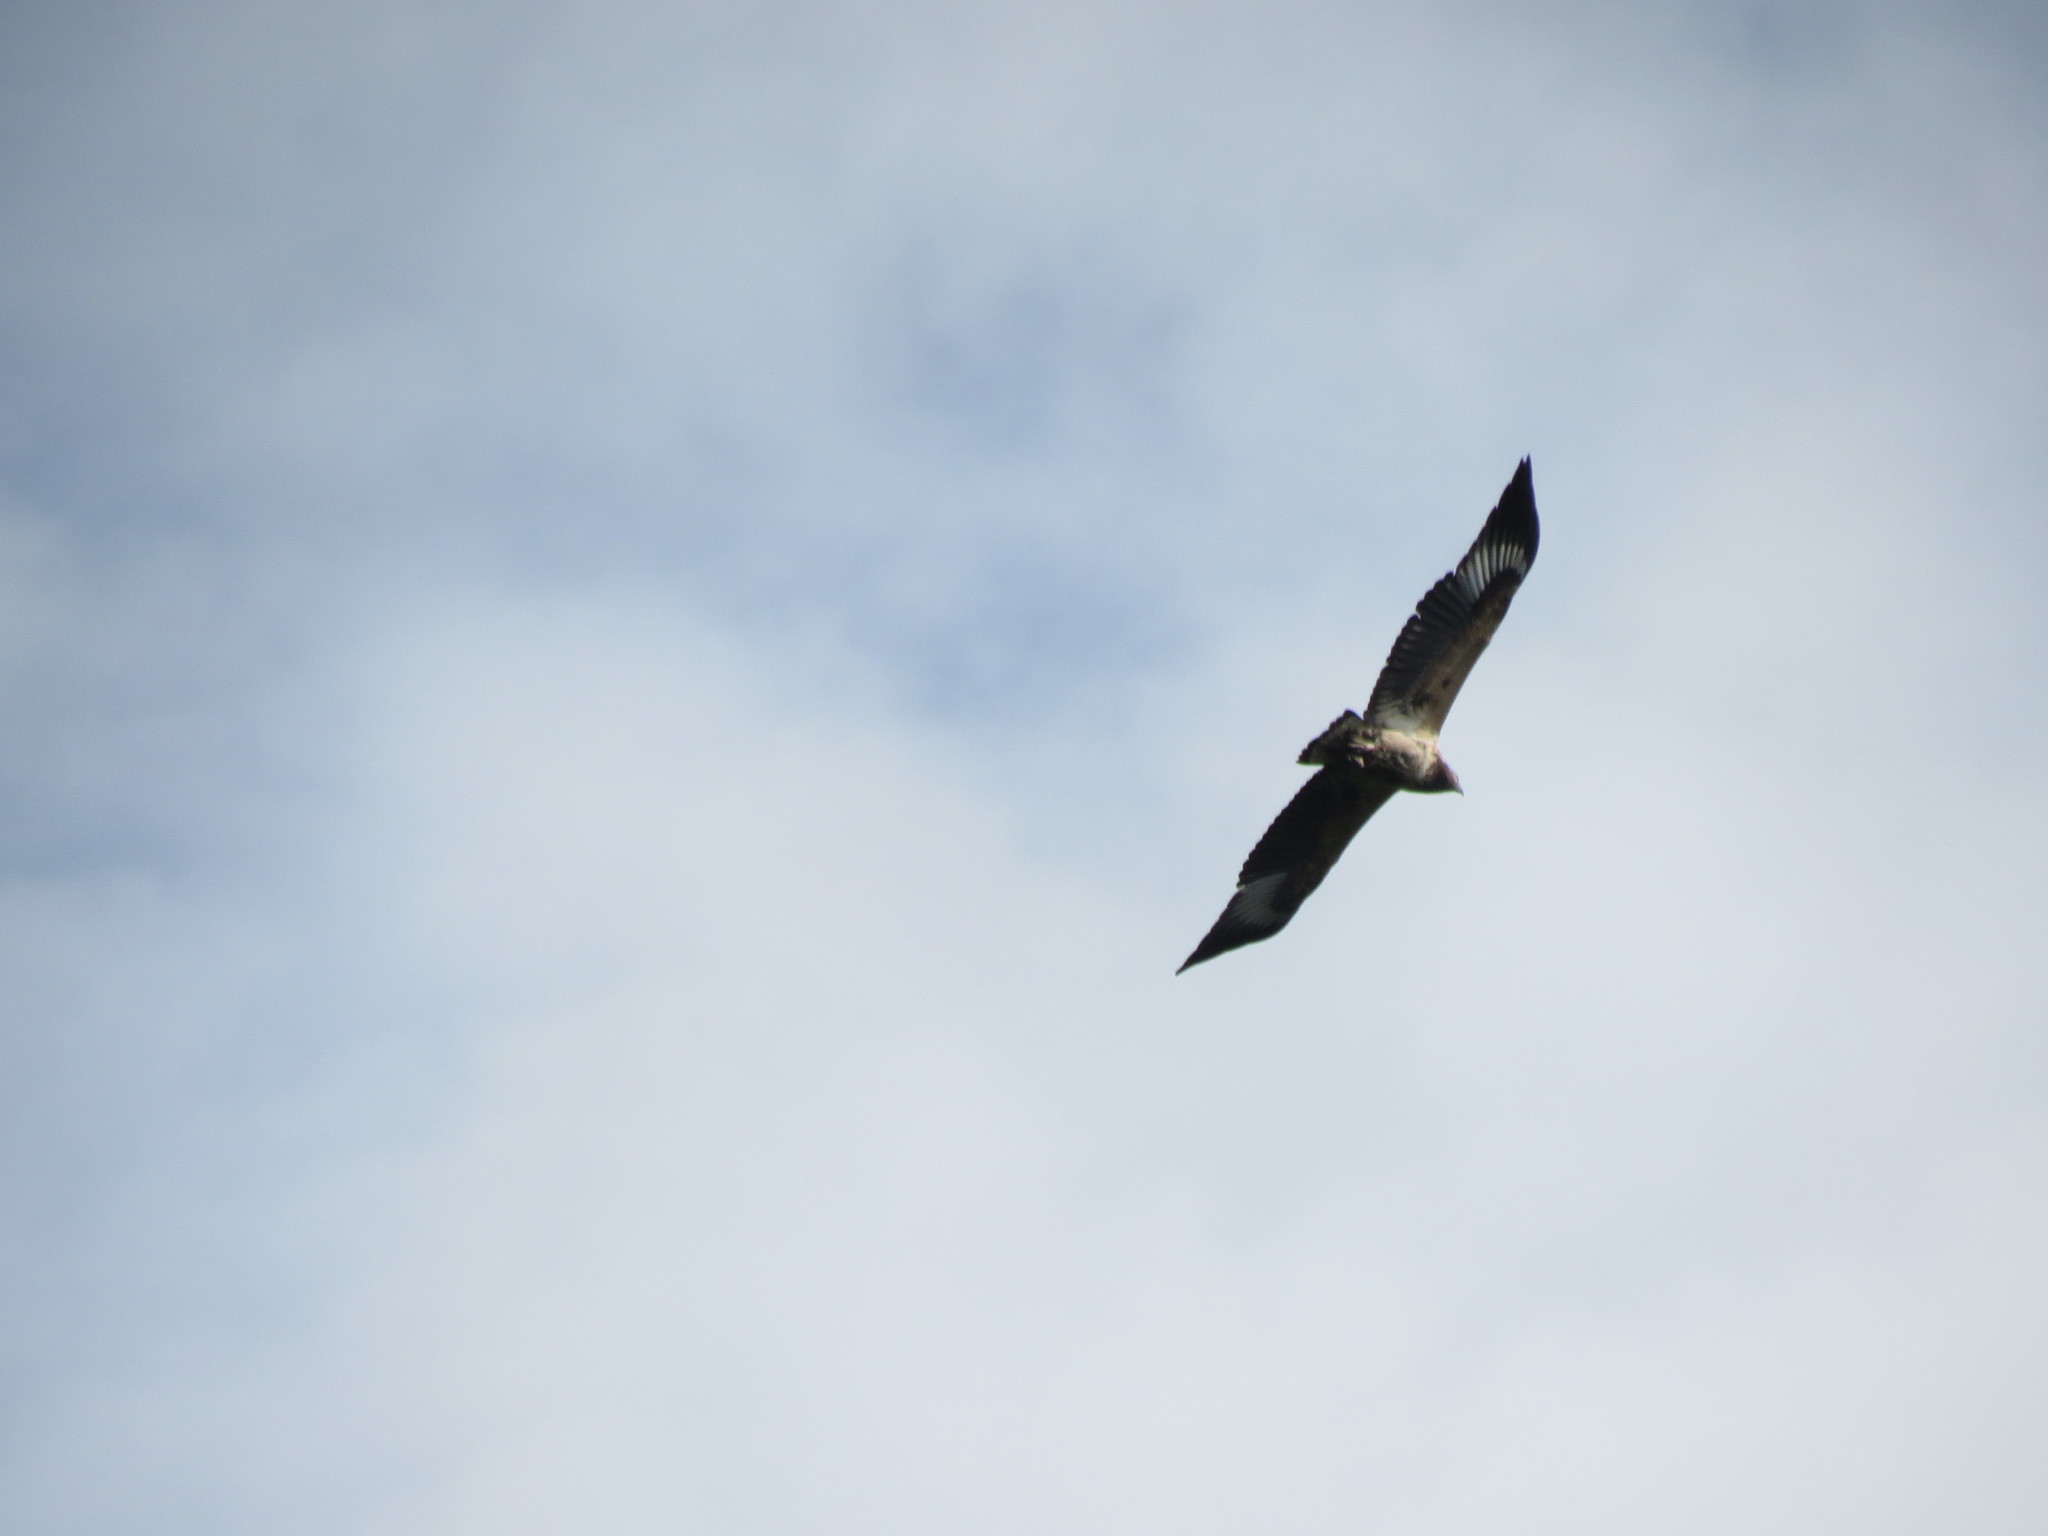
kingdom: Animalia
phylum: Chordata
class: Aves
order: Accipitriformes
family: Accipitridae
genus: Haliaeetus
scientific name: Haliaeetus vocifer
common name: African fish eagle
